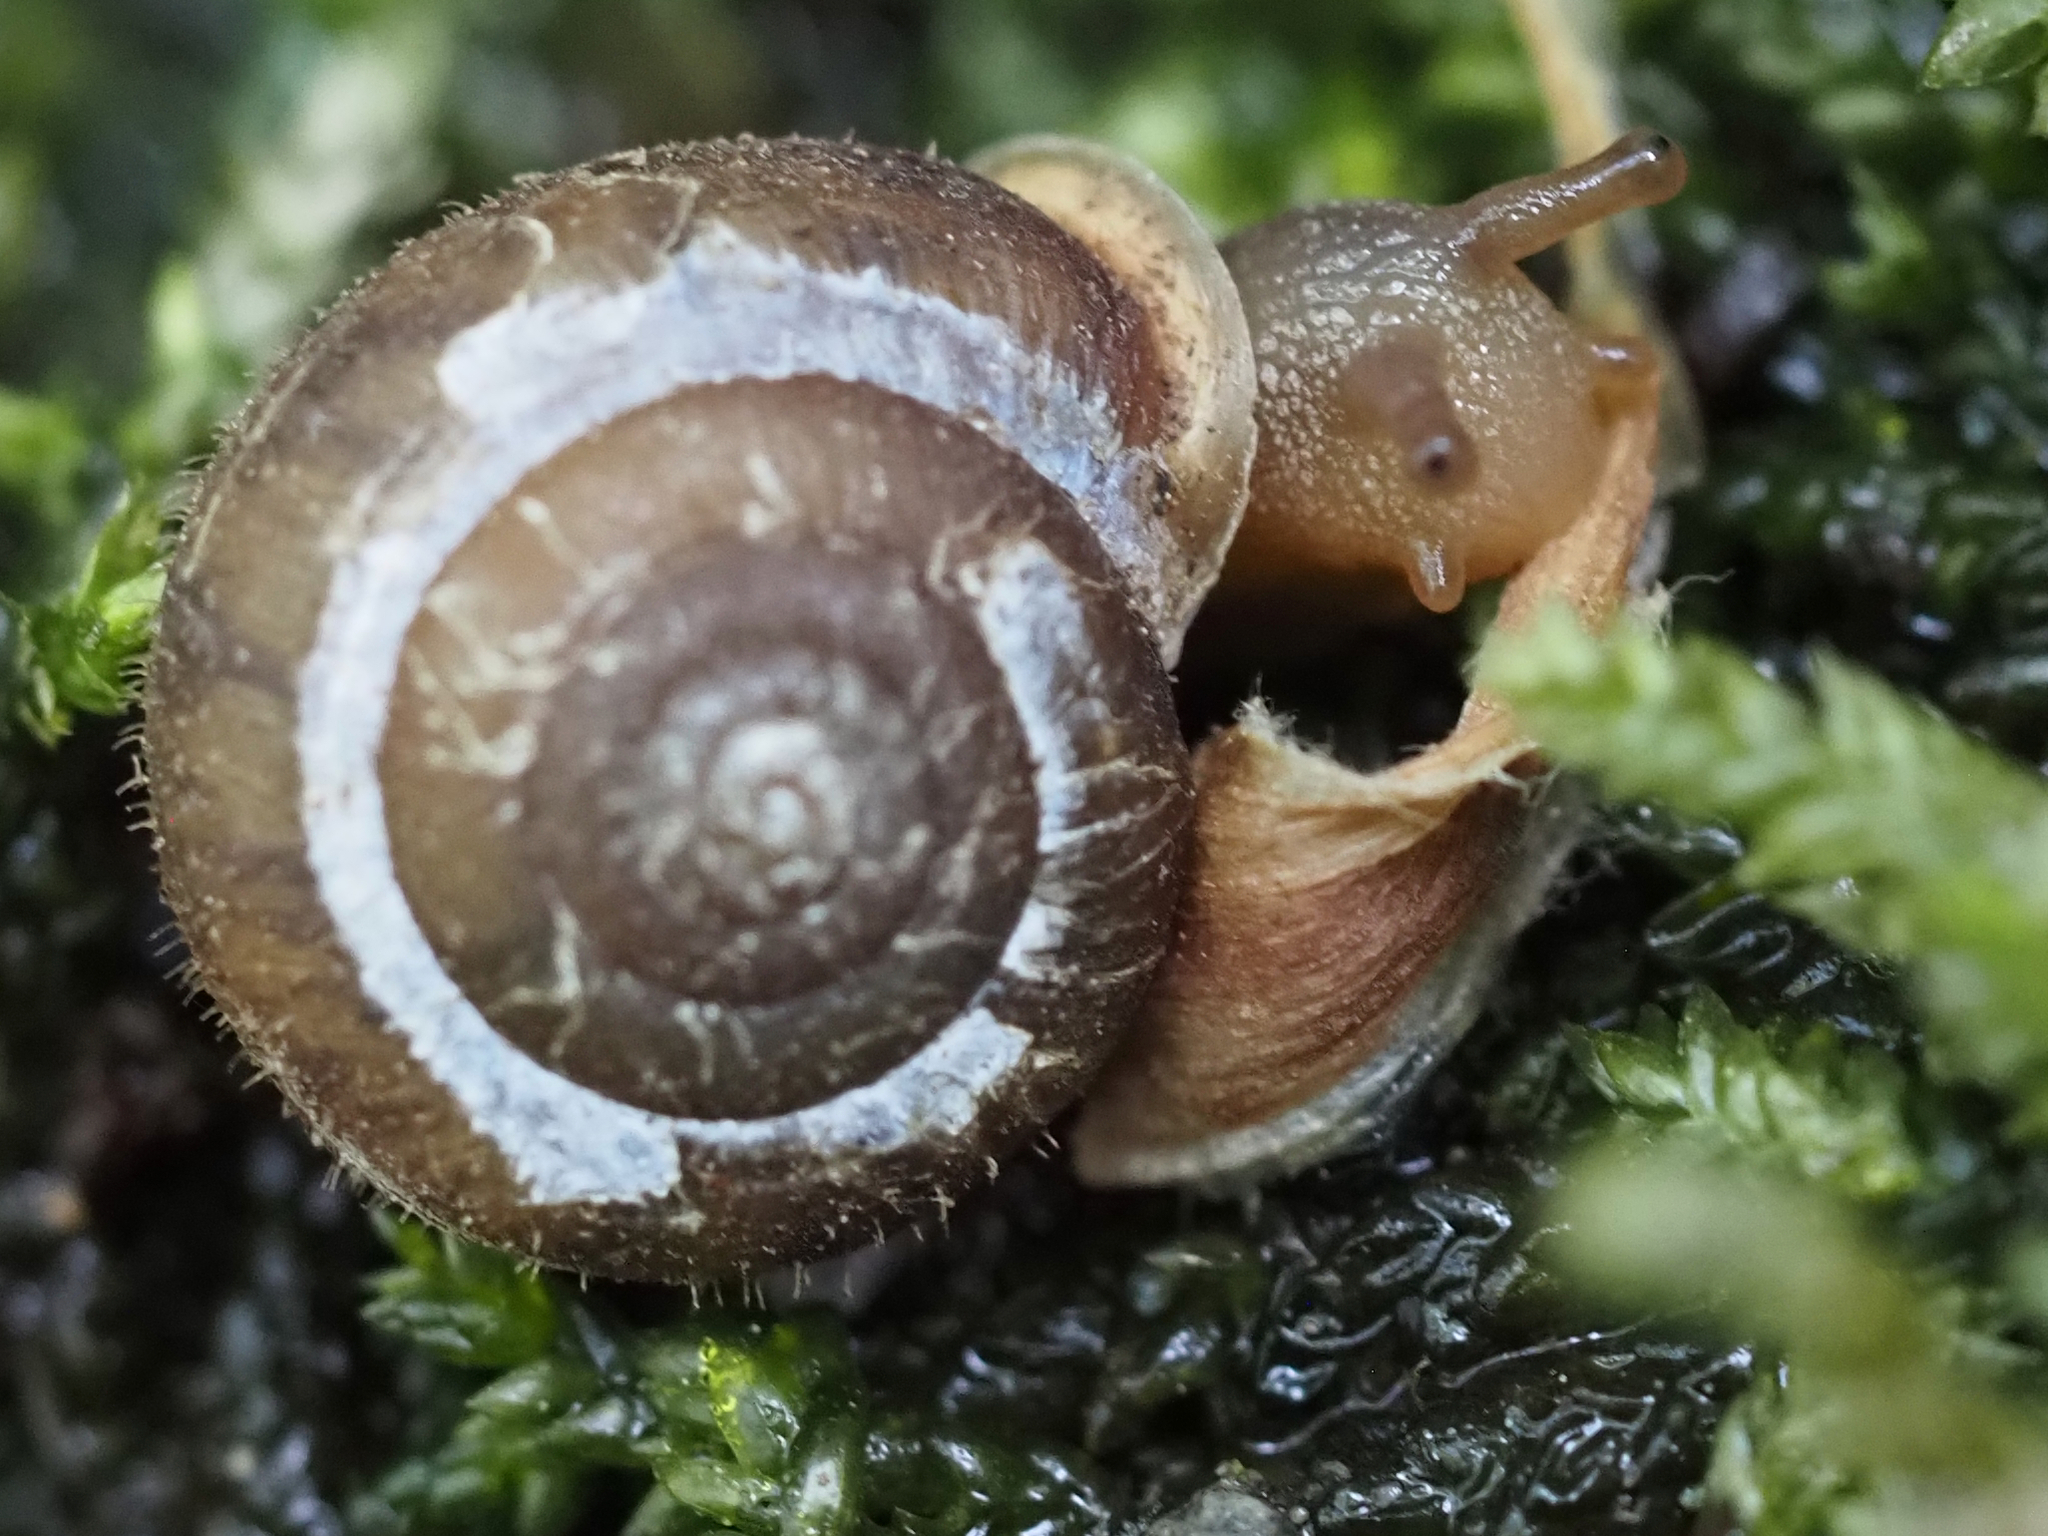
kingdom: Animalia
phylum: Mollusca
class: Gastropoda
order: Stylommatophora
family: Polygyridae
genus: Vespericola
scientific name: Vespericola columbianus
